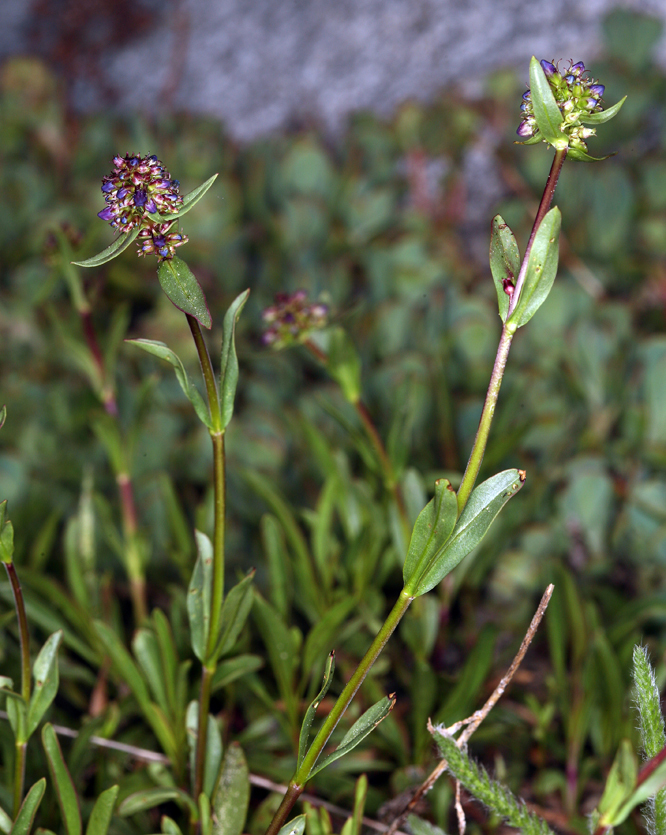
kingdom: Plantae
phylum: Tracheophyta
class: Magnoliopsida
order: Lamiales
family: Plantaginaceae
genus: Penstemon
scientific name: Penstemon parvulus
